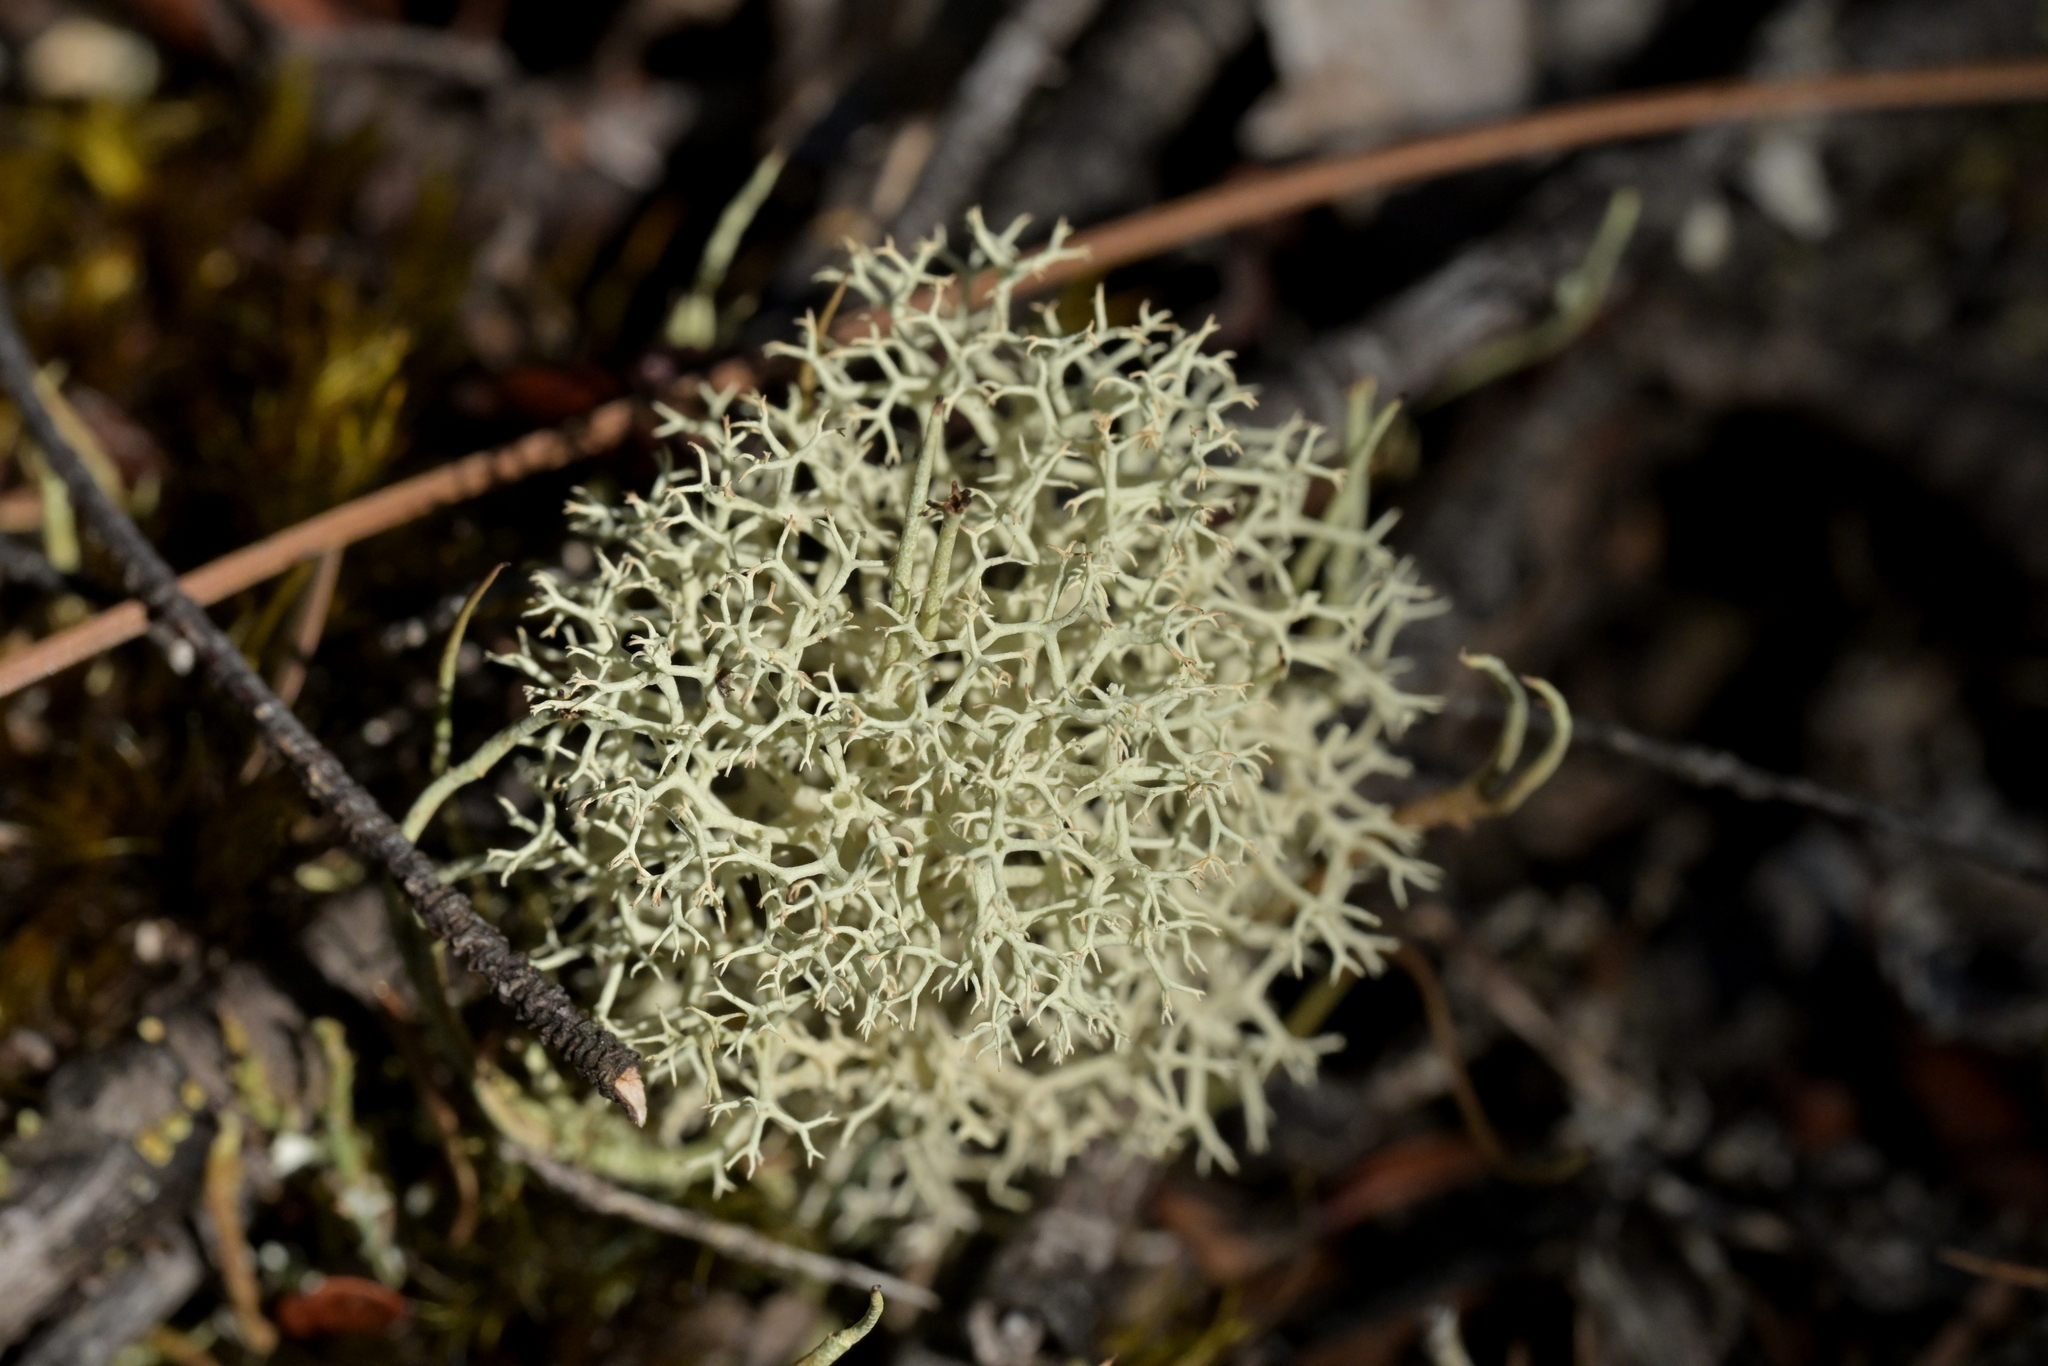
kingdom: Fungi
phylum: Ascomycota
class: Lecanoromycetes
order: Lecanorales
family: Cladoniaceae
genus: Cladonia
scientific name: Cladonia confusa
